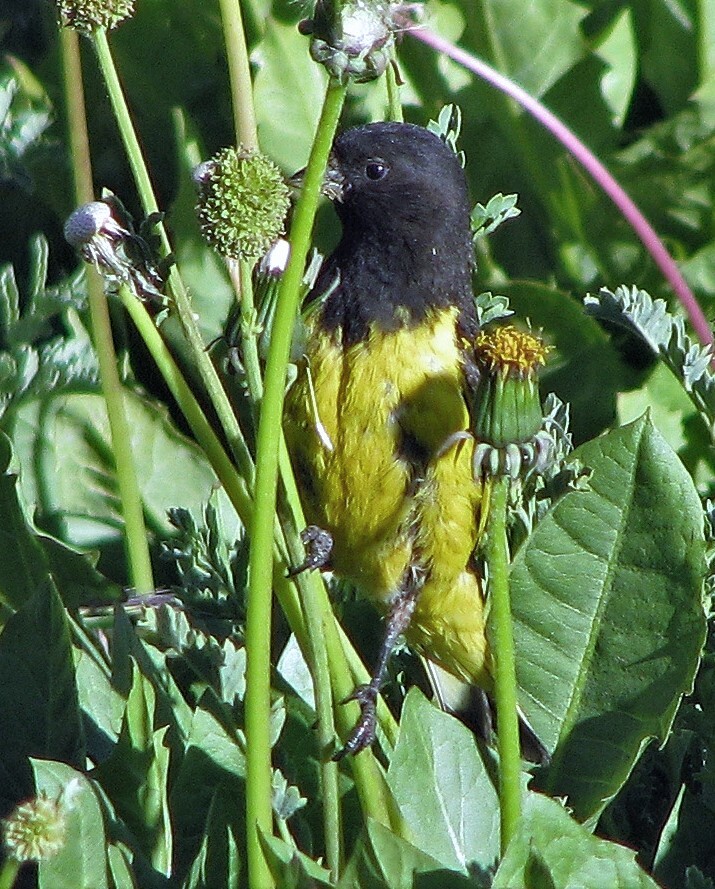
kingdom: Animalia
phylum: Chordata
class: Aves
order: Passeriformes
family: Fringillidae
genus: Spinus
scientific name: Spinus uropygialis
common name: Yellow-rumped siskin
